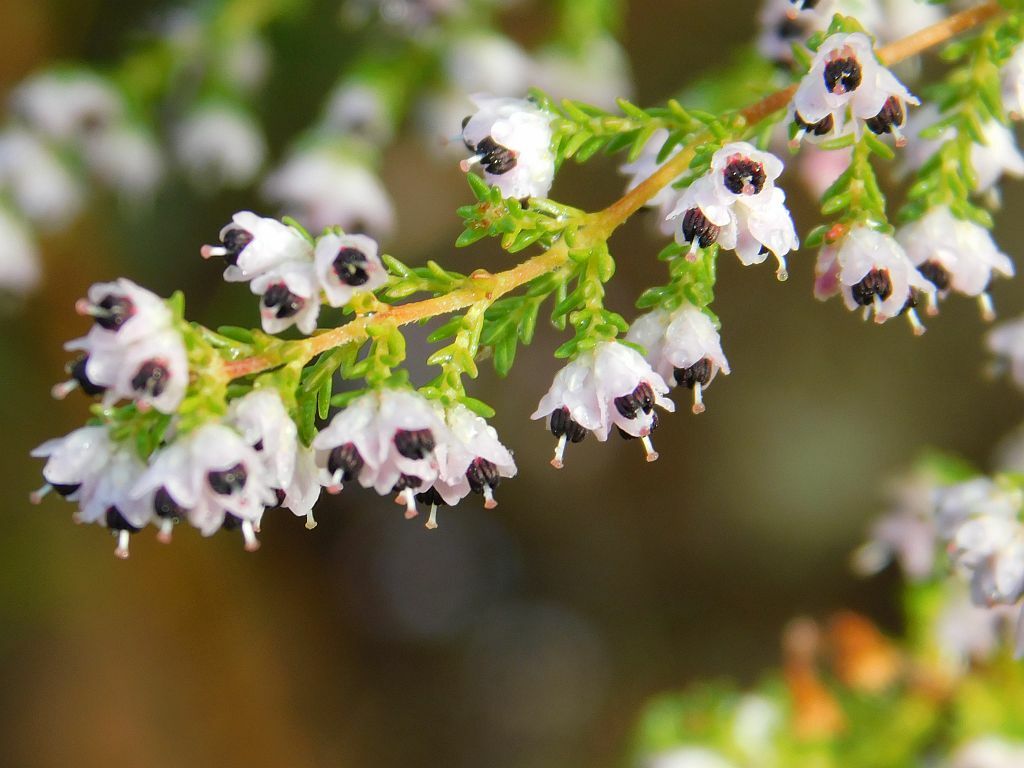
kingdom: Plantae
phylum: Tracheophyta
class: Magnoliopsida
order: Ericales
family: Ericaceae
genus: Erica
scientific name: Erica lasciva
